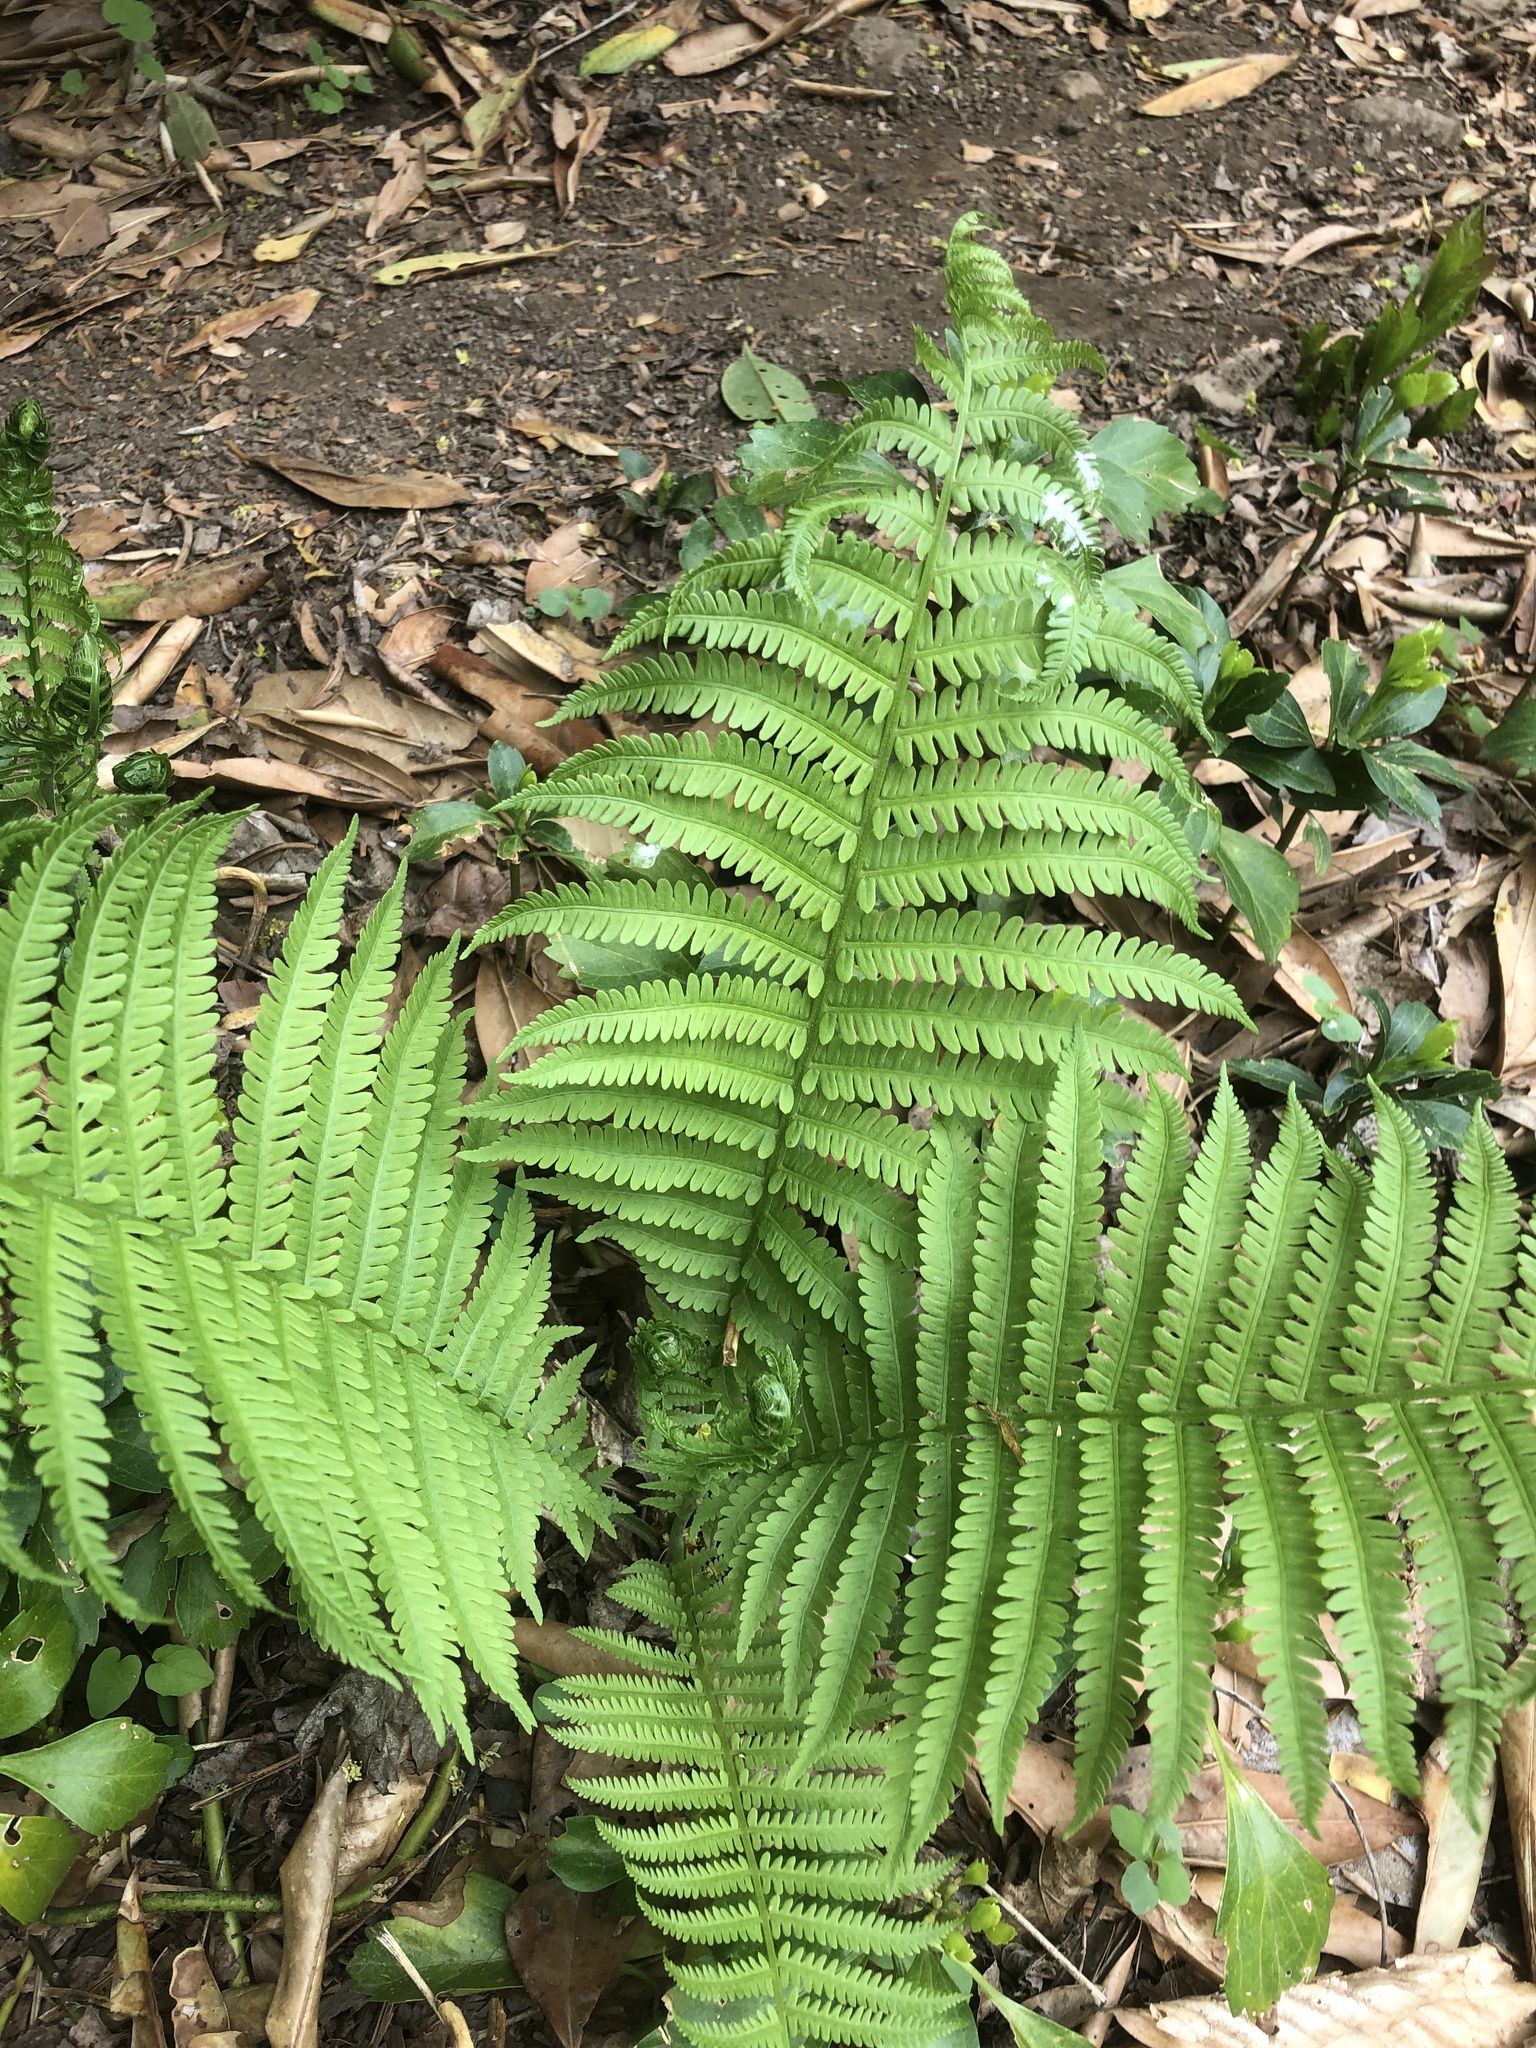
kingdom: Plantae
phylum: Tracheophyta
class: Polypodiopsida
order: Polypodiales
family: Onocleaceae
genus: Matteuccia
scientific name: Matteuccia struthiopteris
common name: Ostrich fern
